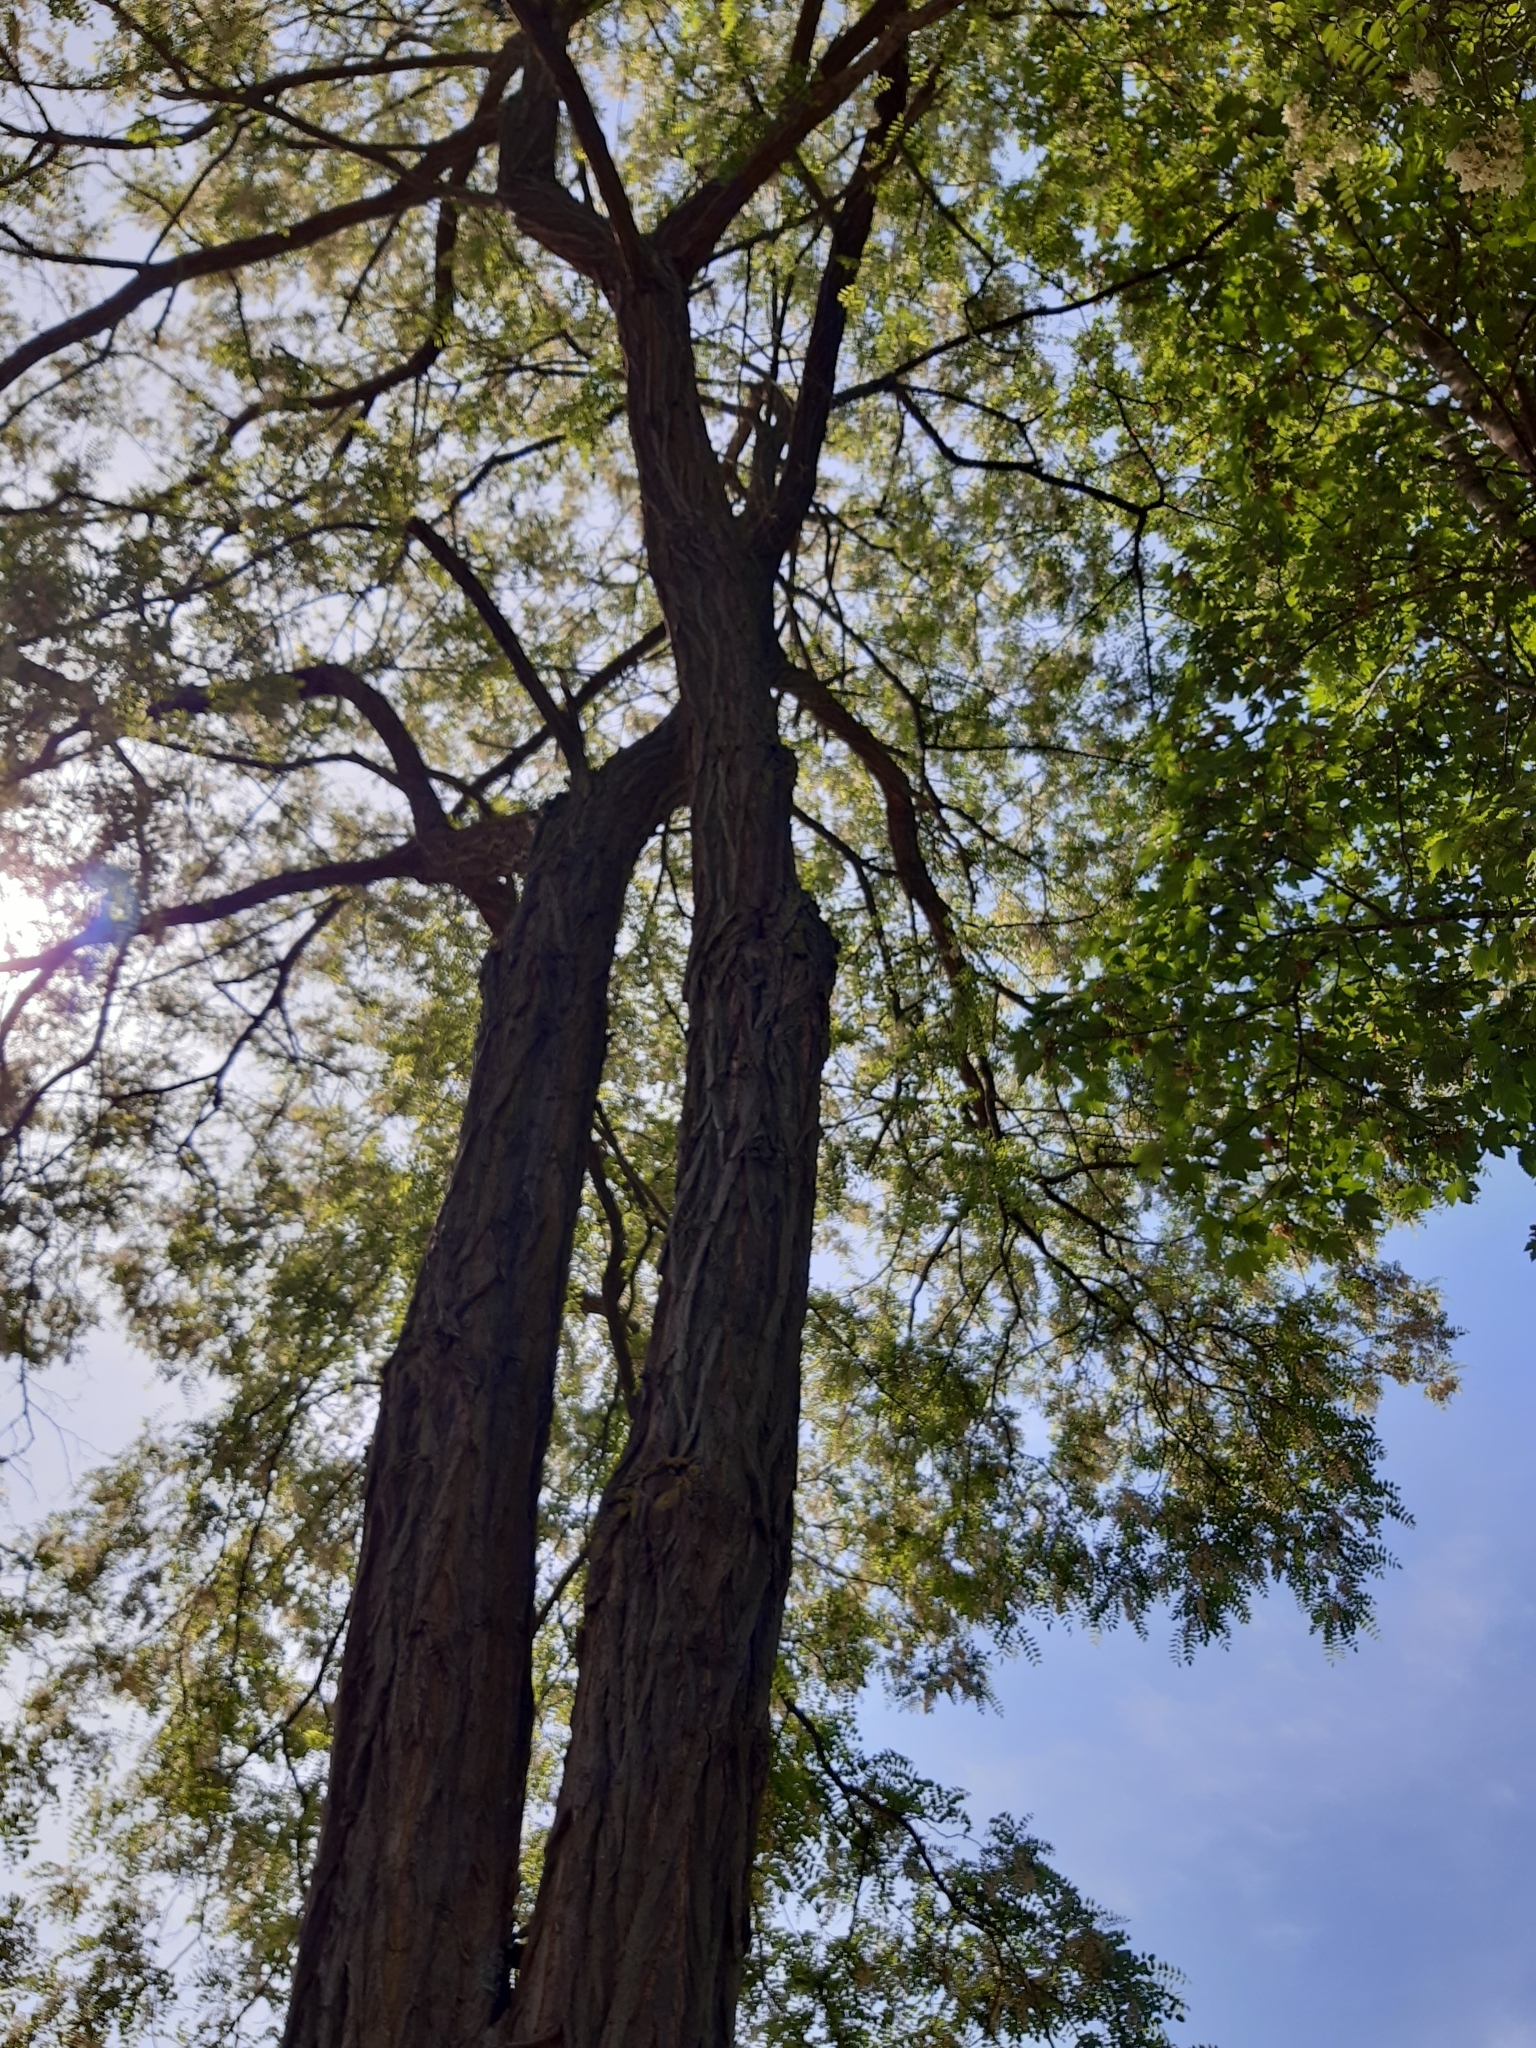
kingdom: Plantae
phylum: Tracheophyta
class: Magnoliopsida
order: Fabales
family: Fabaceae
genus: Robinia
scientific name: Robinia pseudoacacia
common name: Black locust
